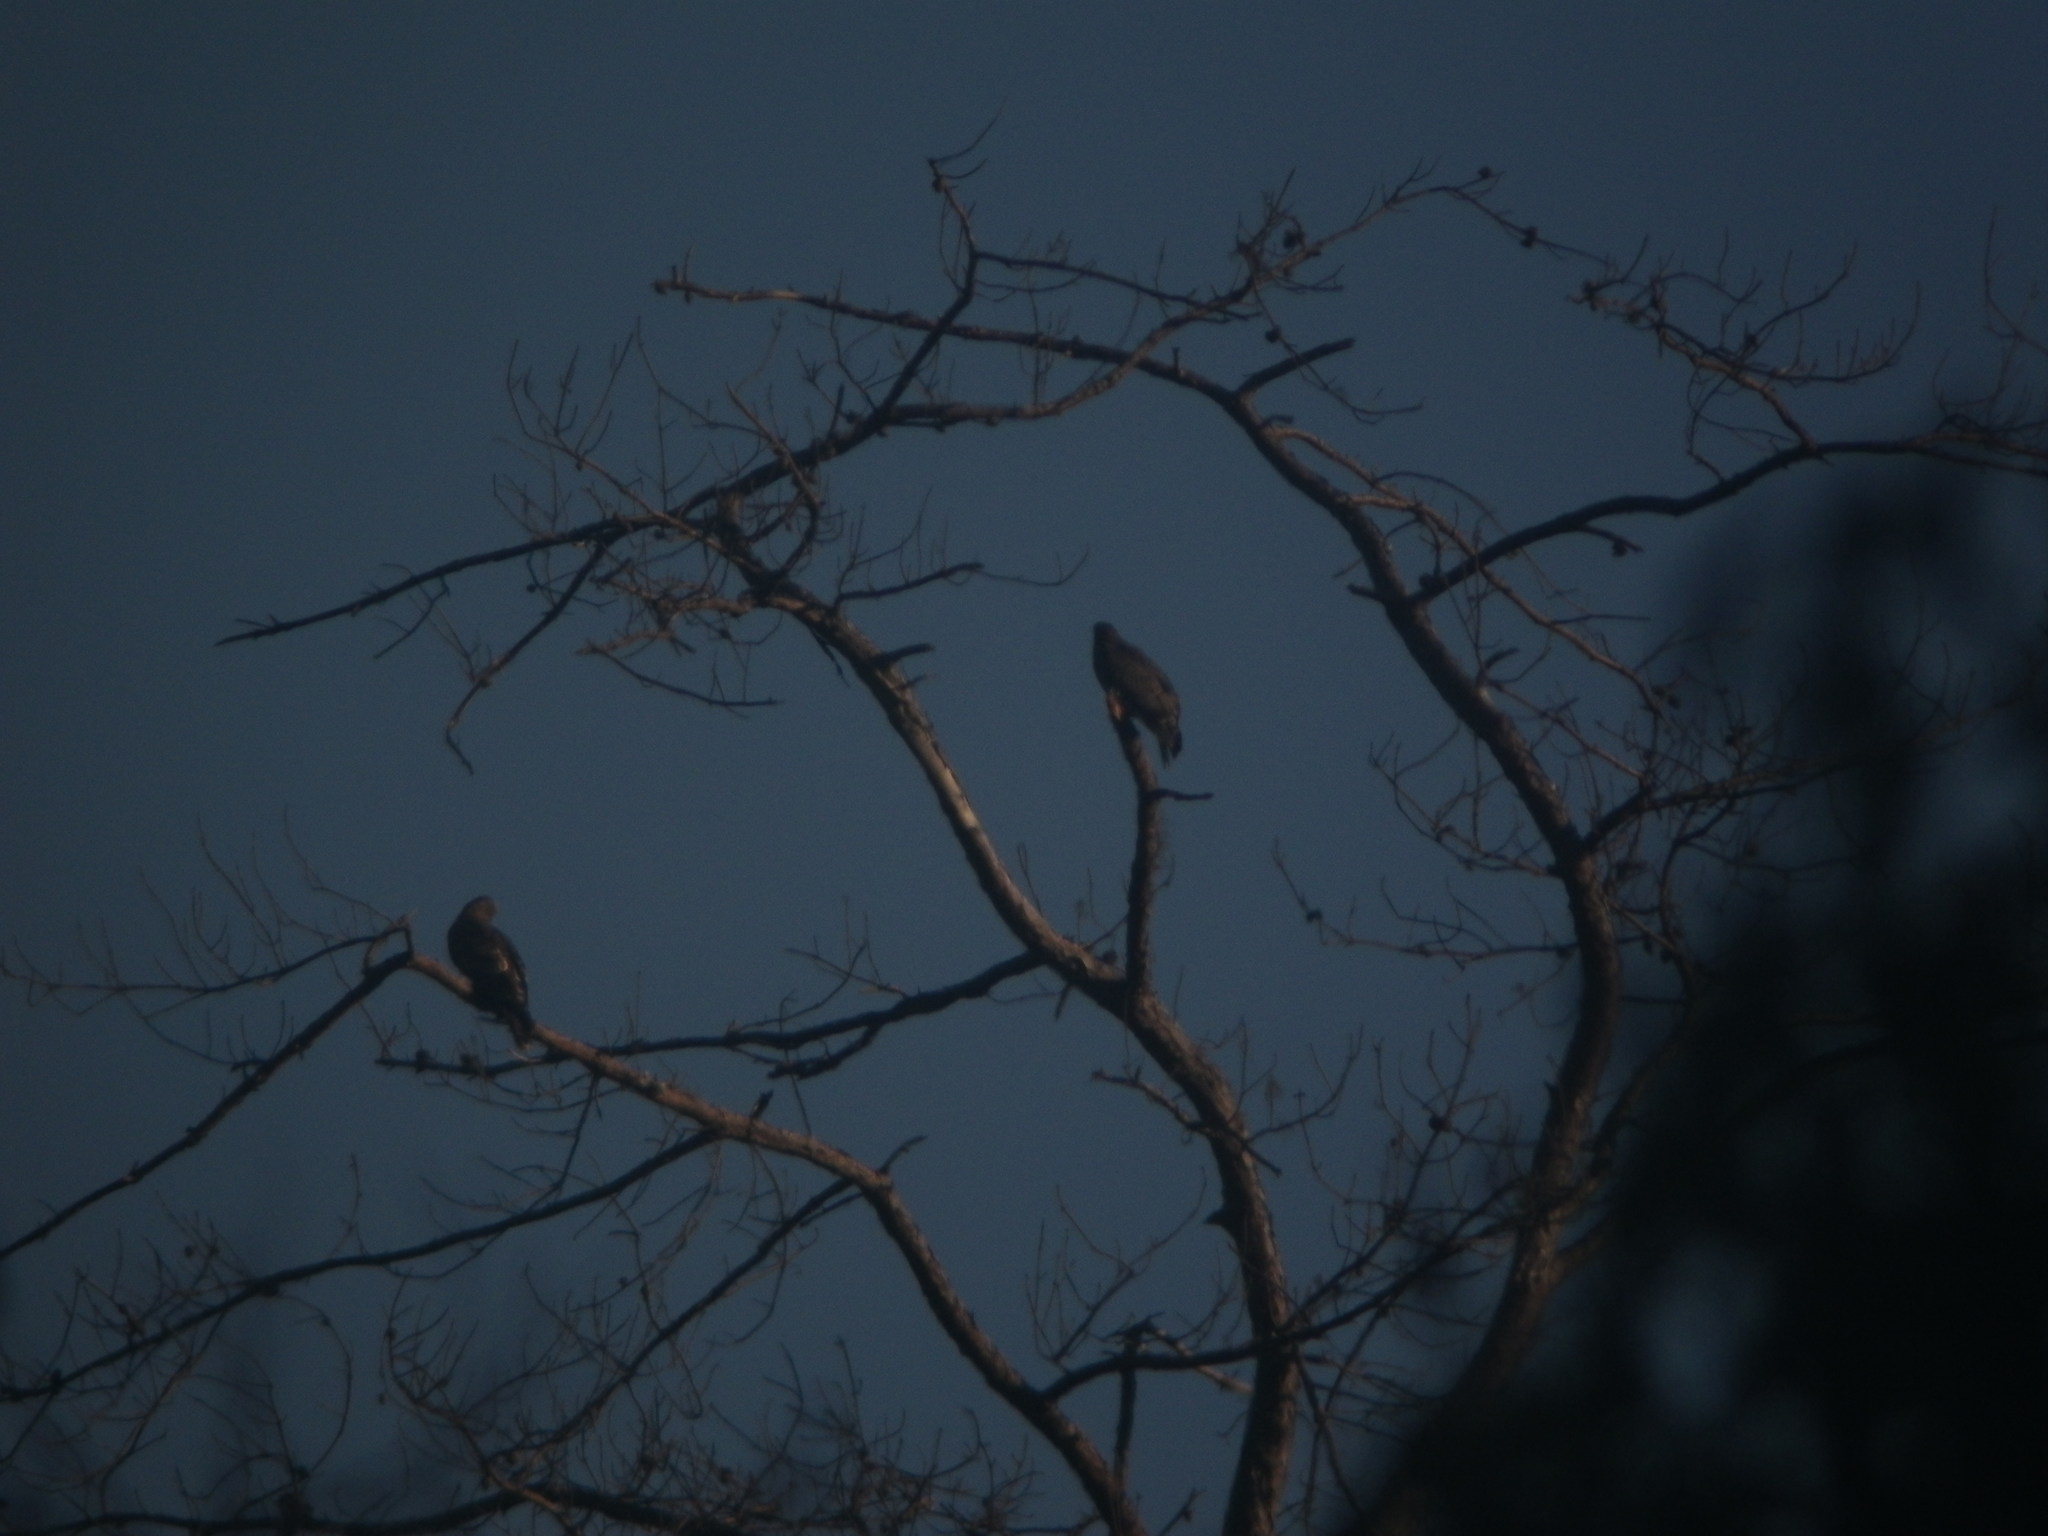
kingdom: Animalia
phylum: Chordata
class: Aves
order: Accipitriformes
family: Accipitridae
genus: Pernis
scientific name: Pernis ptilorhynchus
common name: Crested honey buzzard
